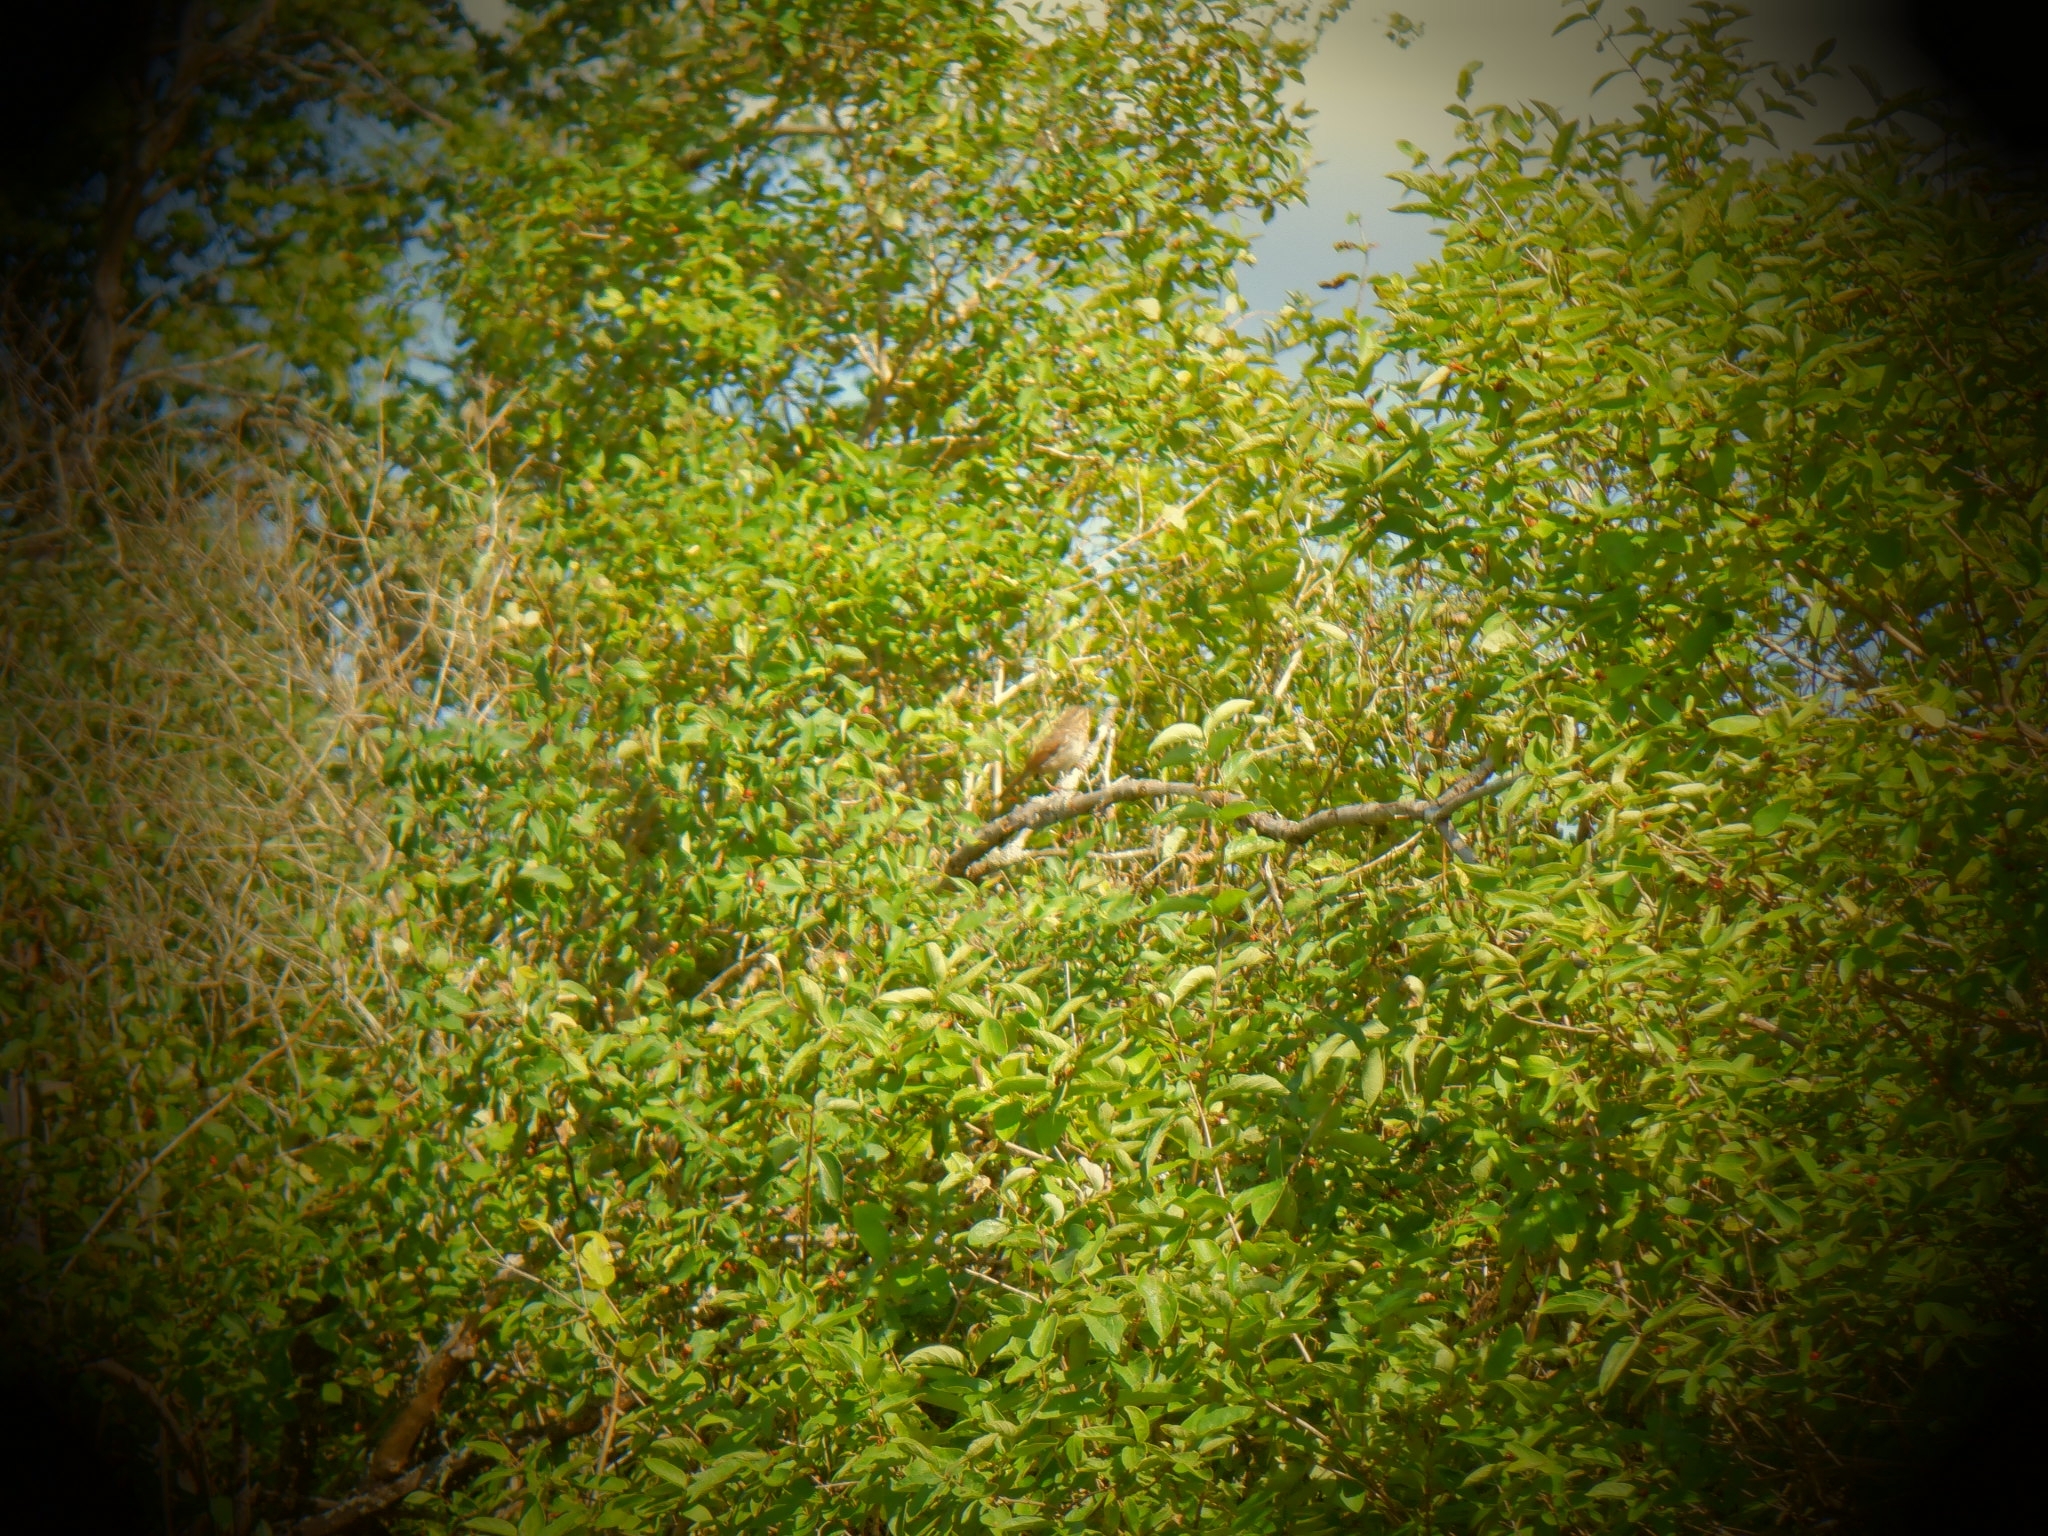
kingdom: Animalia
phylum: Chordata
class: Aves
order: Passeriformes
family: Passerellidae
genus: Melospiza
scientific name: Melospiza melodia
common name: Song sparrow
